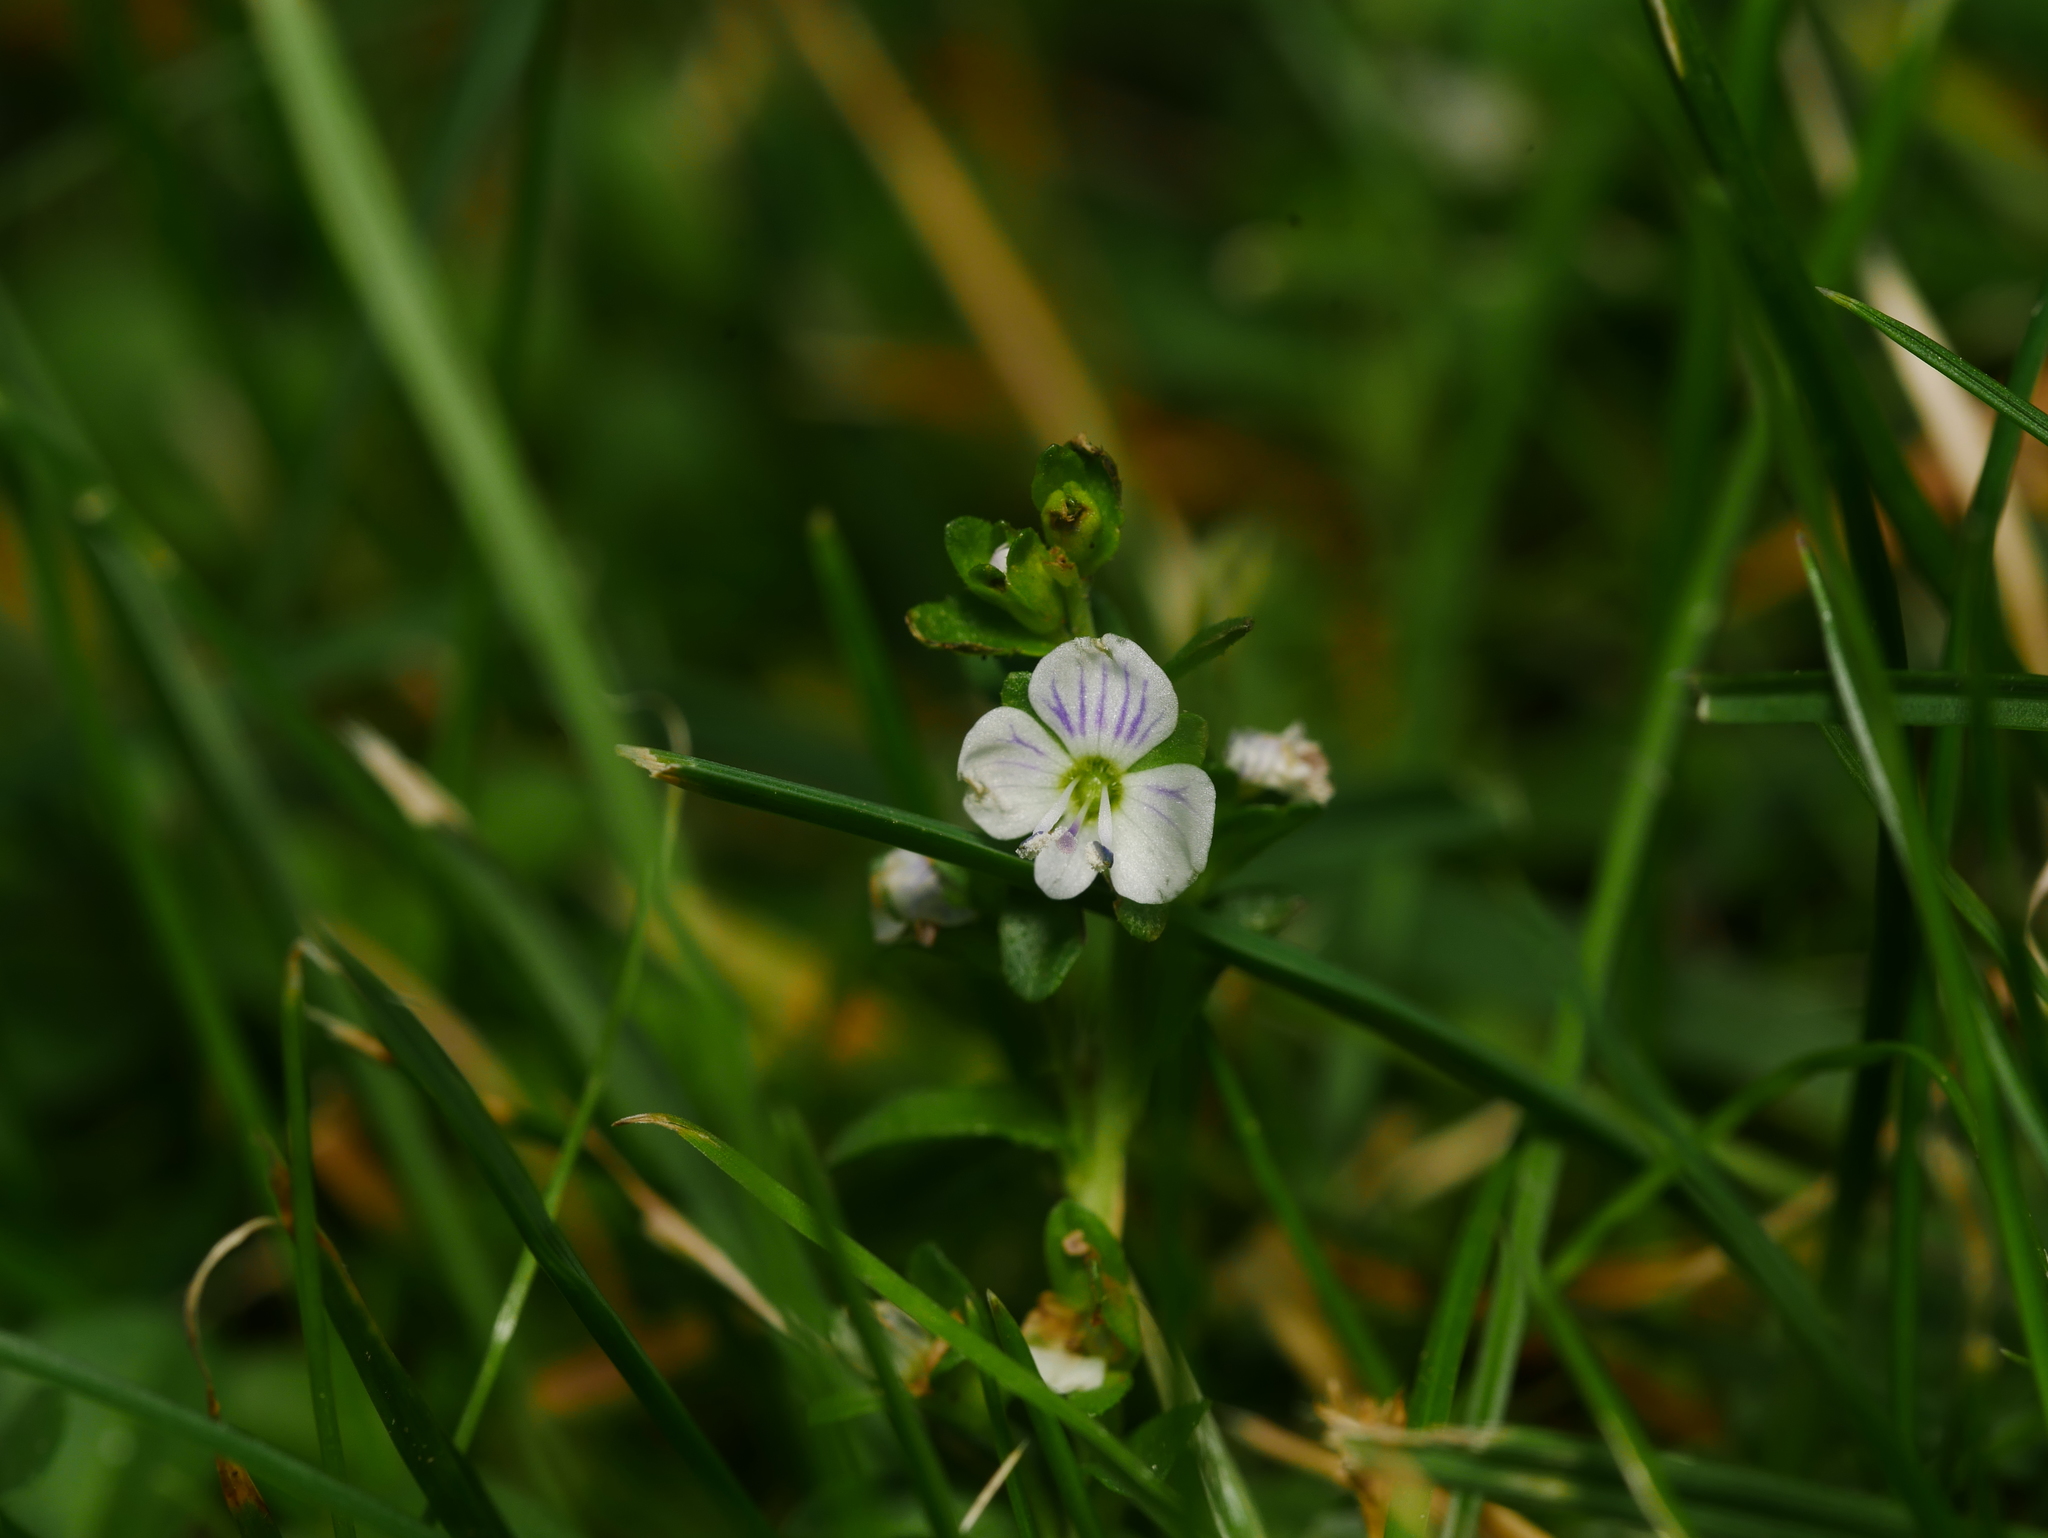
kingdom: Plantae
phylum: Tracheophyta
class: Magnoliopsida
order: Lamiales
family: Plantaginaceae
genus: Veronica
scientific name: Veronica serpyllifolia
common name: Thyme-leaved speedwell
